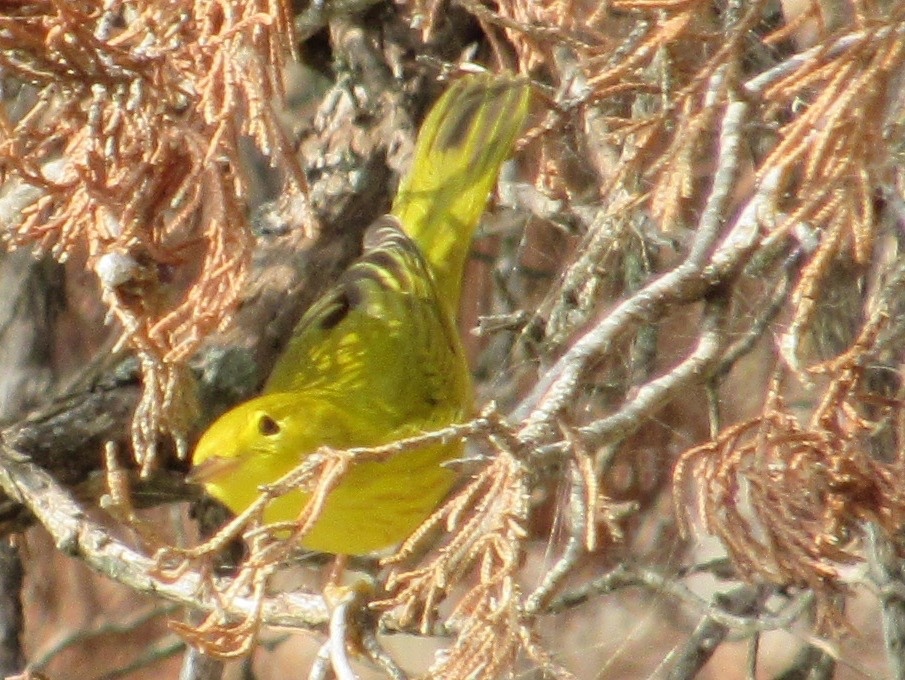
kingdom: Animalia
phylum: Chordata
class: Aves
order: Passeriformes
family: Parulidae
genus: Setophaga
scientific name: Setophaga petechia
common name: Yellow warbler
